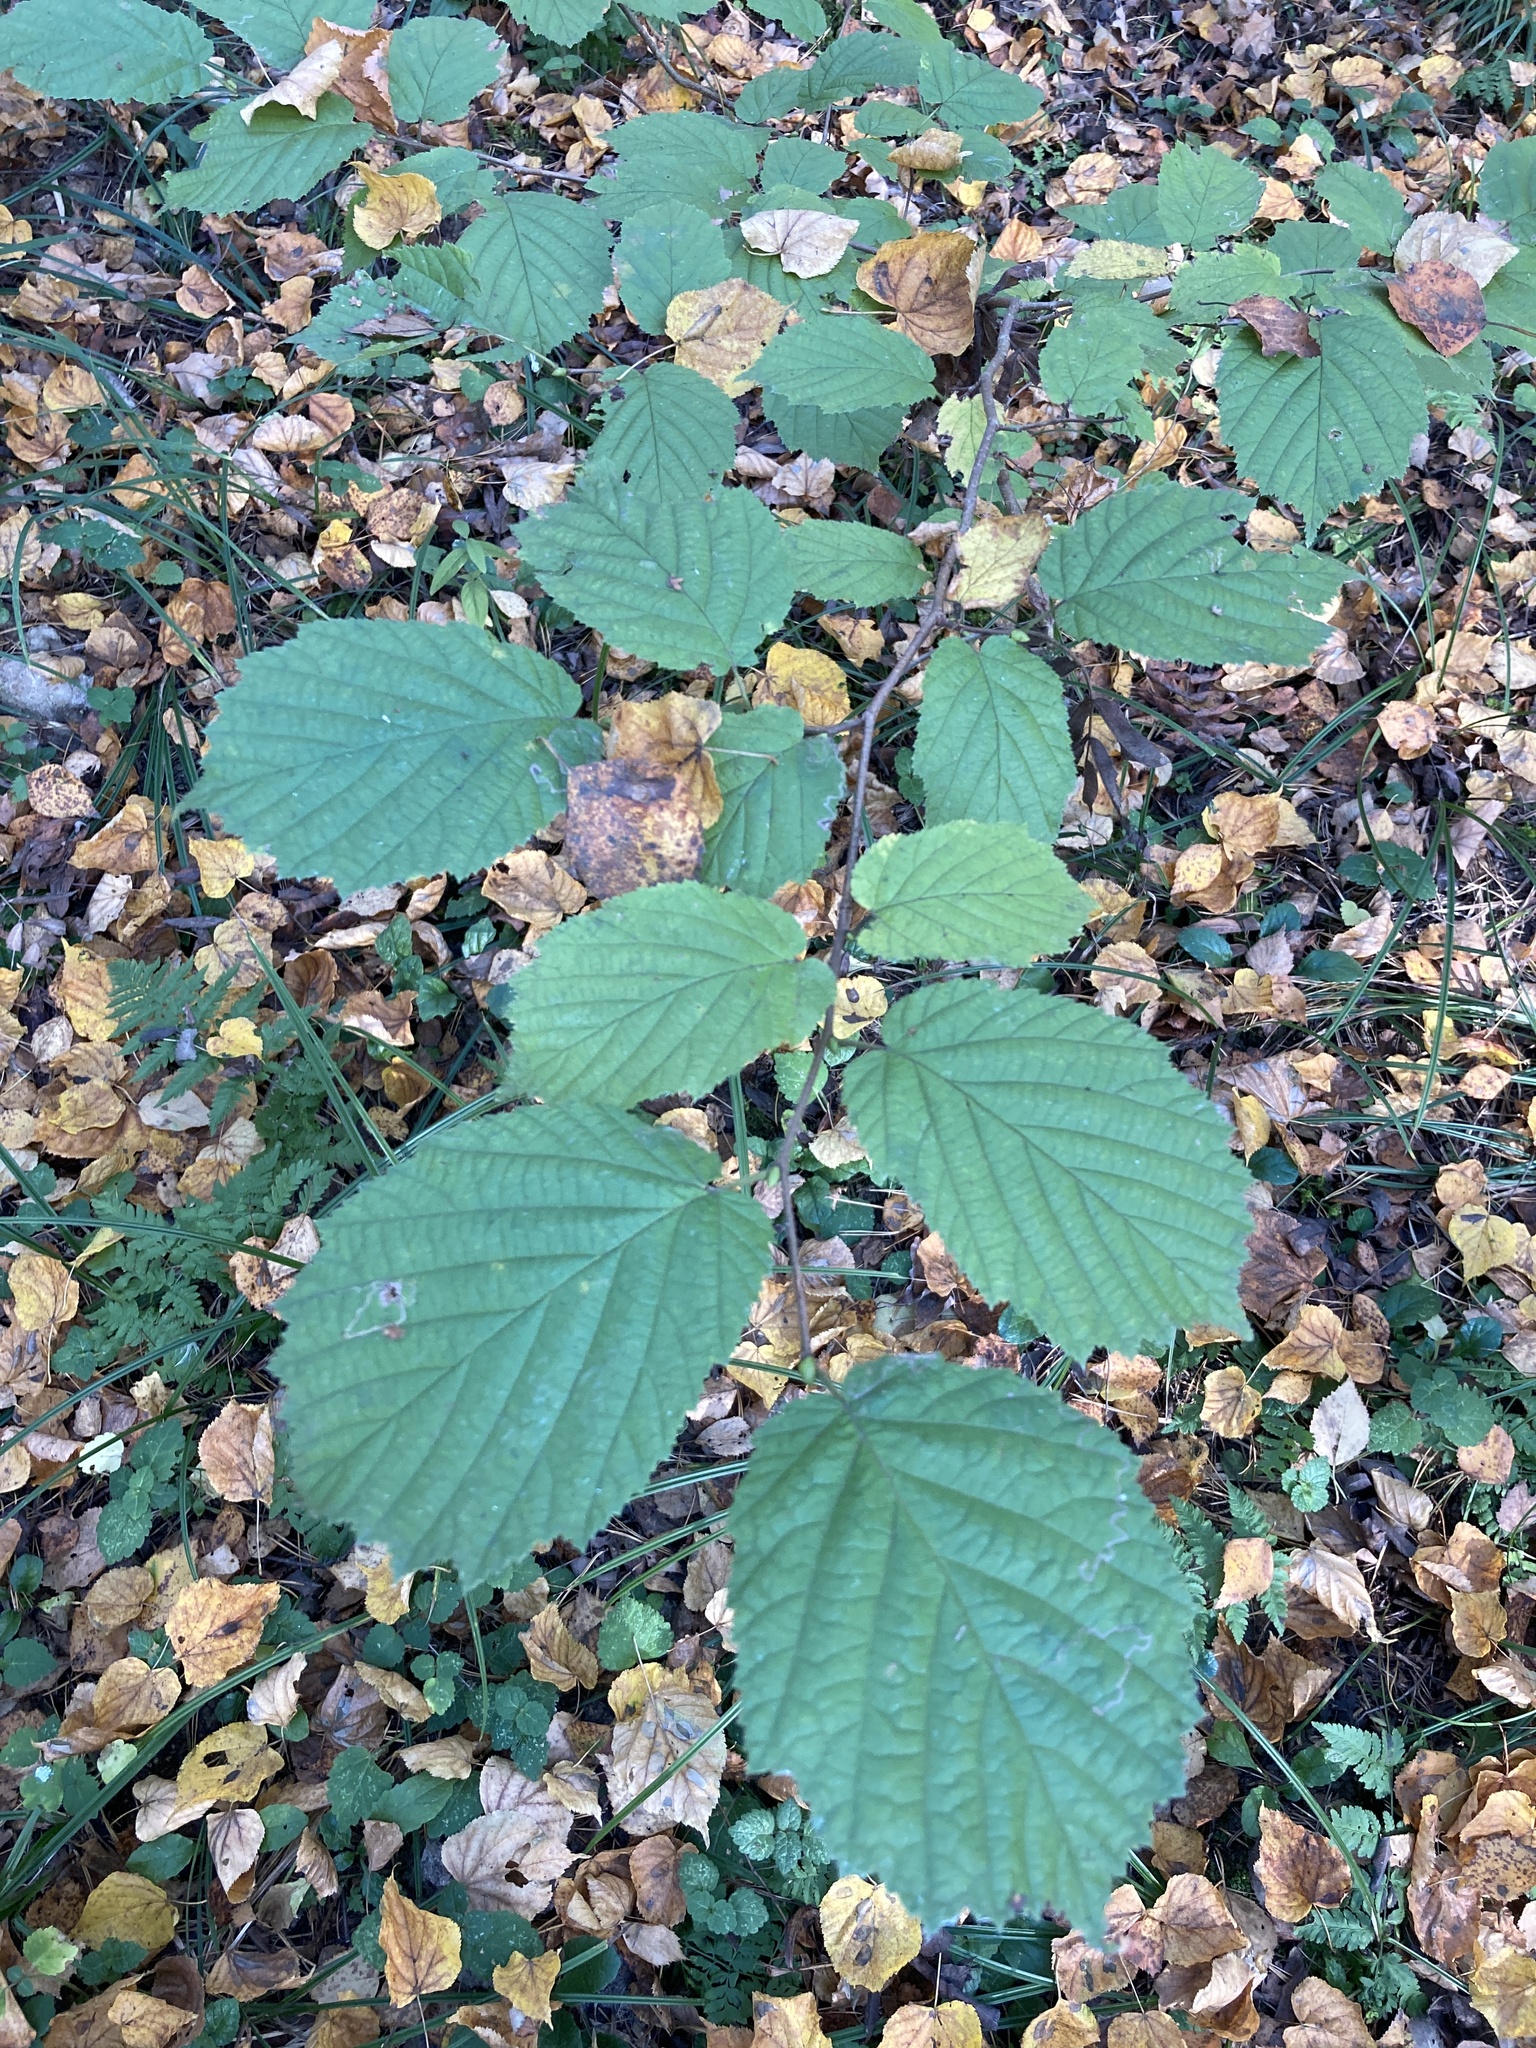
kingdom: Plantae
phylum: Tracheophyta
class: Magnoliopsida
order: Fagales
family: Betulaceae
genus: Corylus
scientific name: Corylus avellana
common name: European hazel
